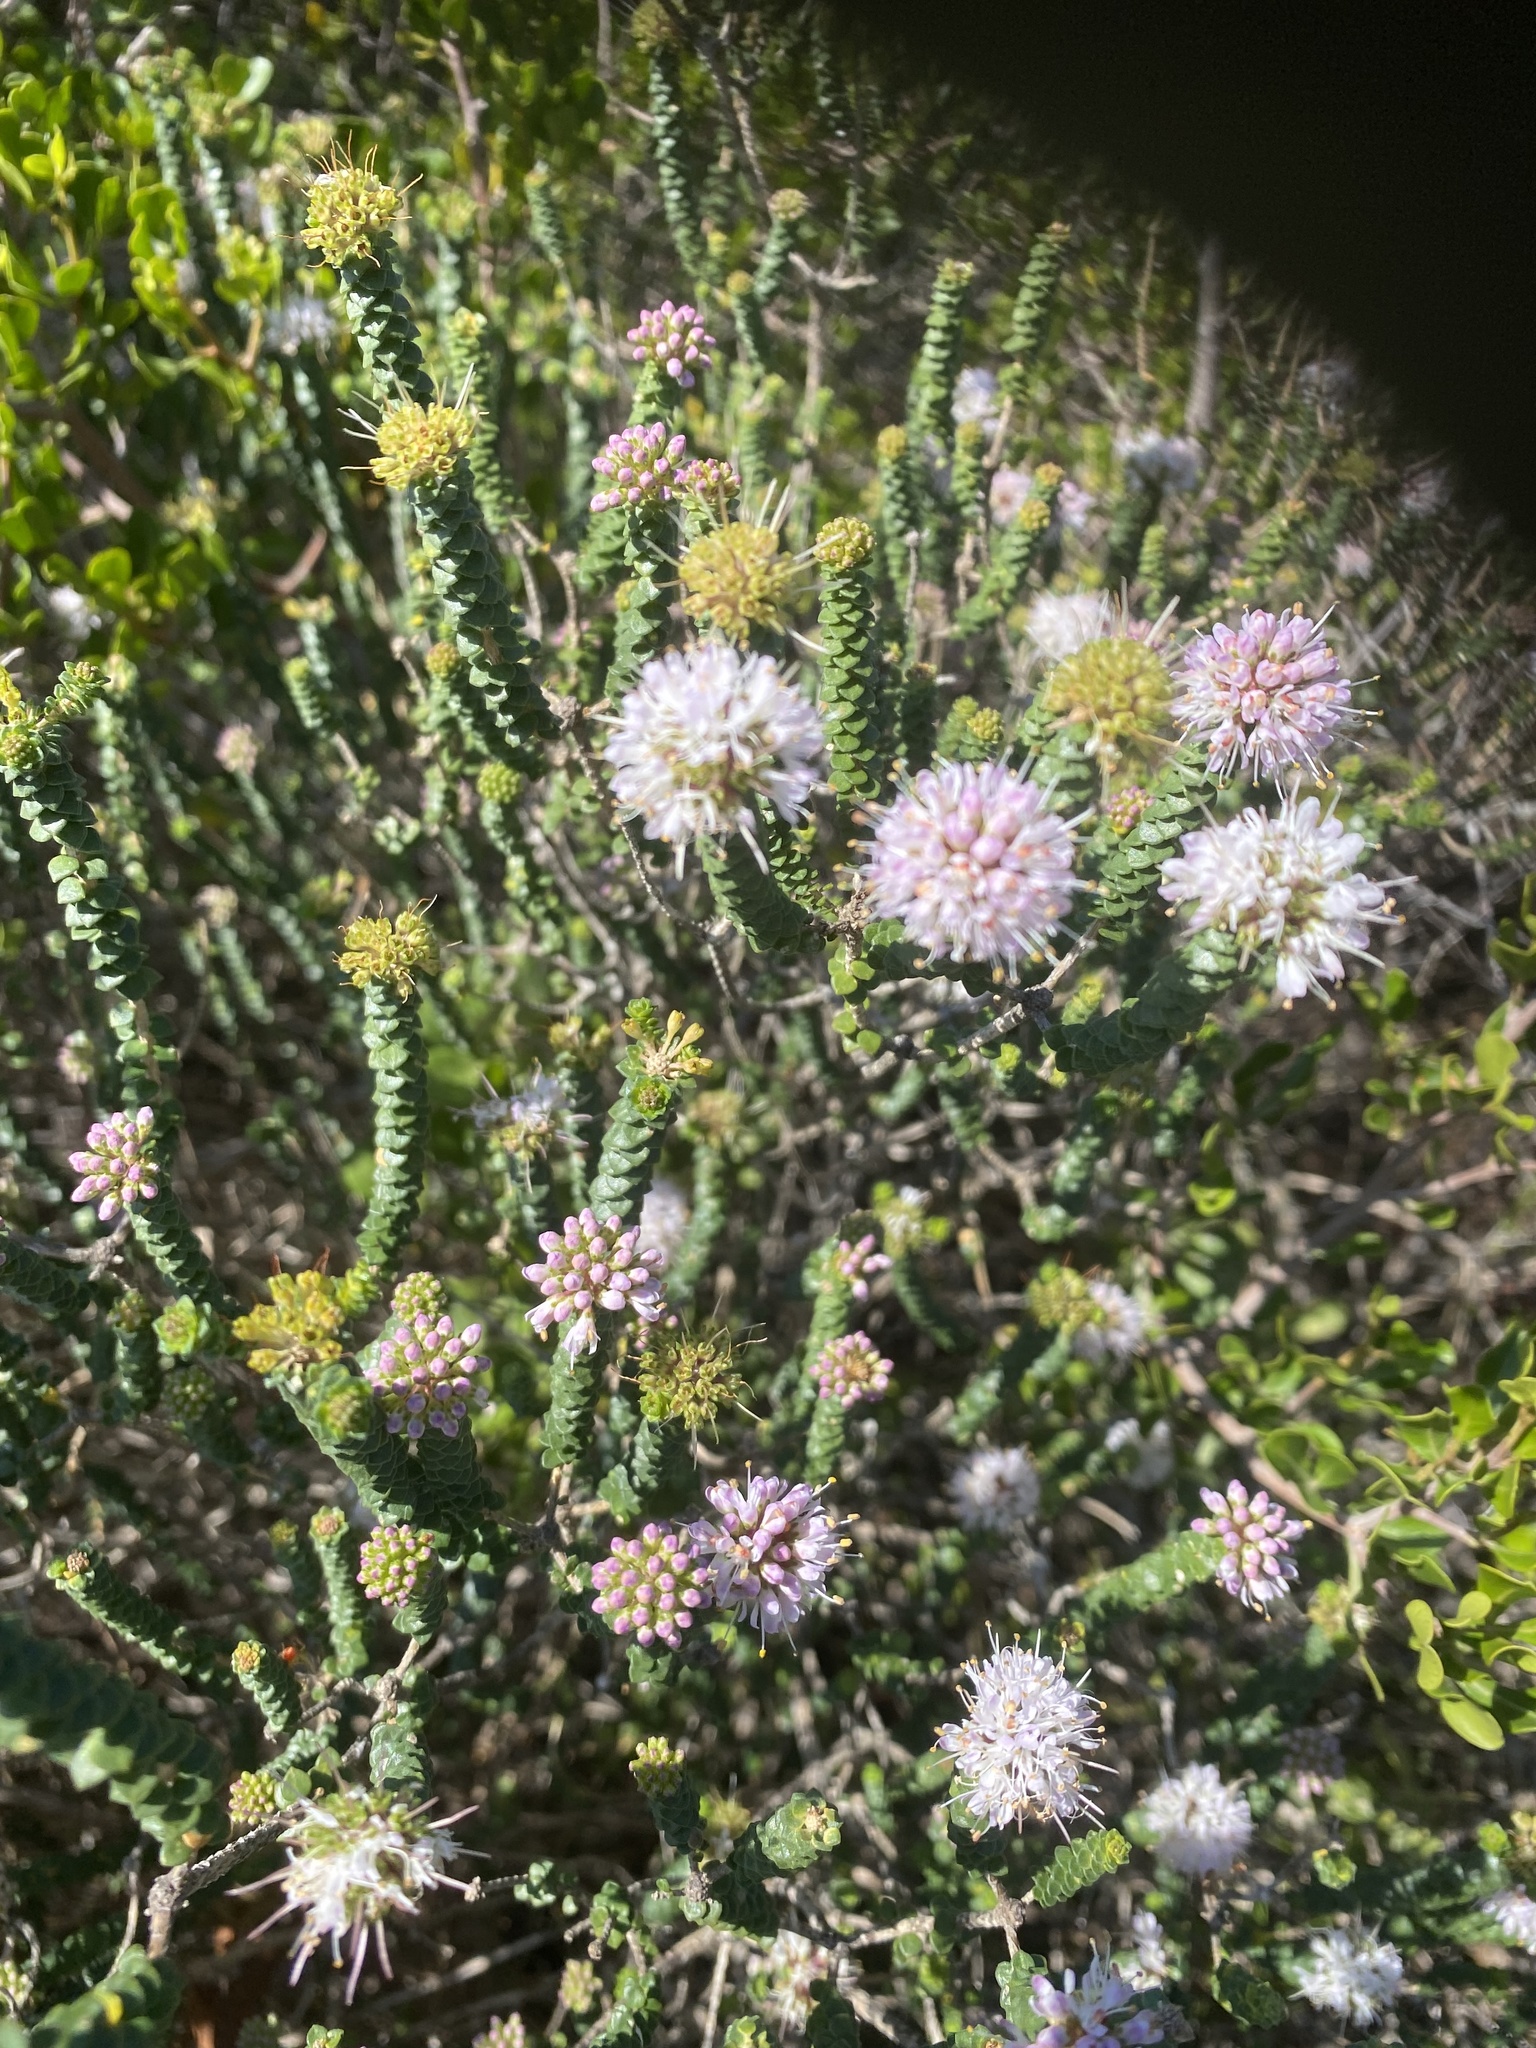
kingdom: Plantae
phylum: Tracheophyta
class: Magnoliopsida
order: Sapindales
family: Rutaceae
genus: Agathosma
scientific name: Agathosma muirii
